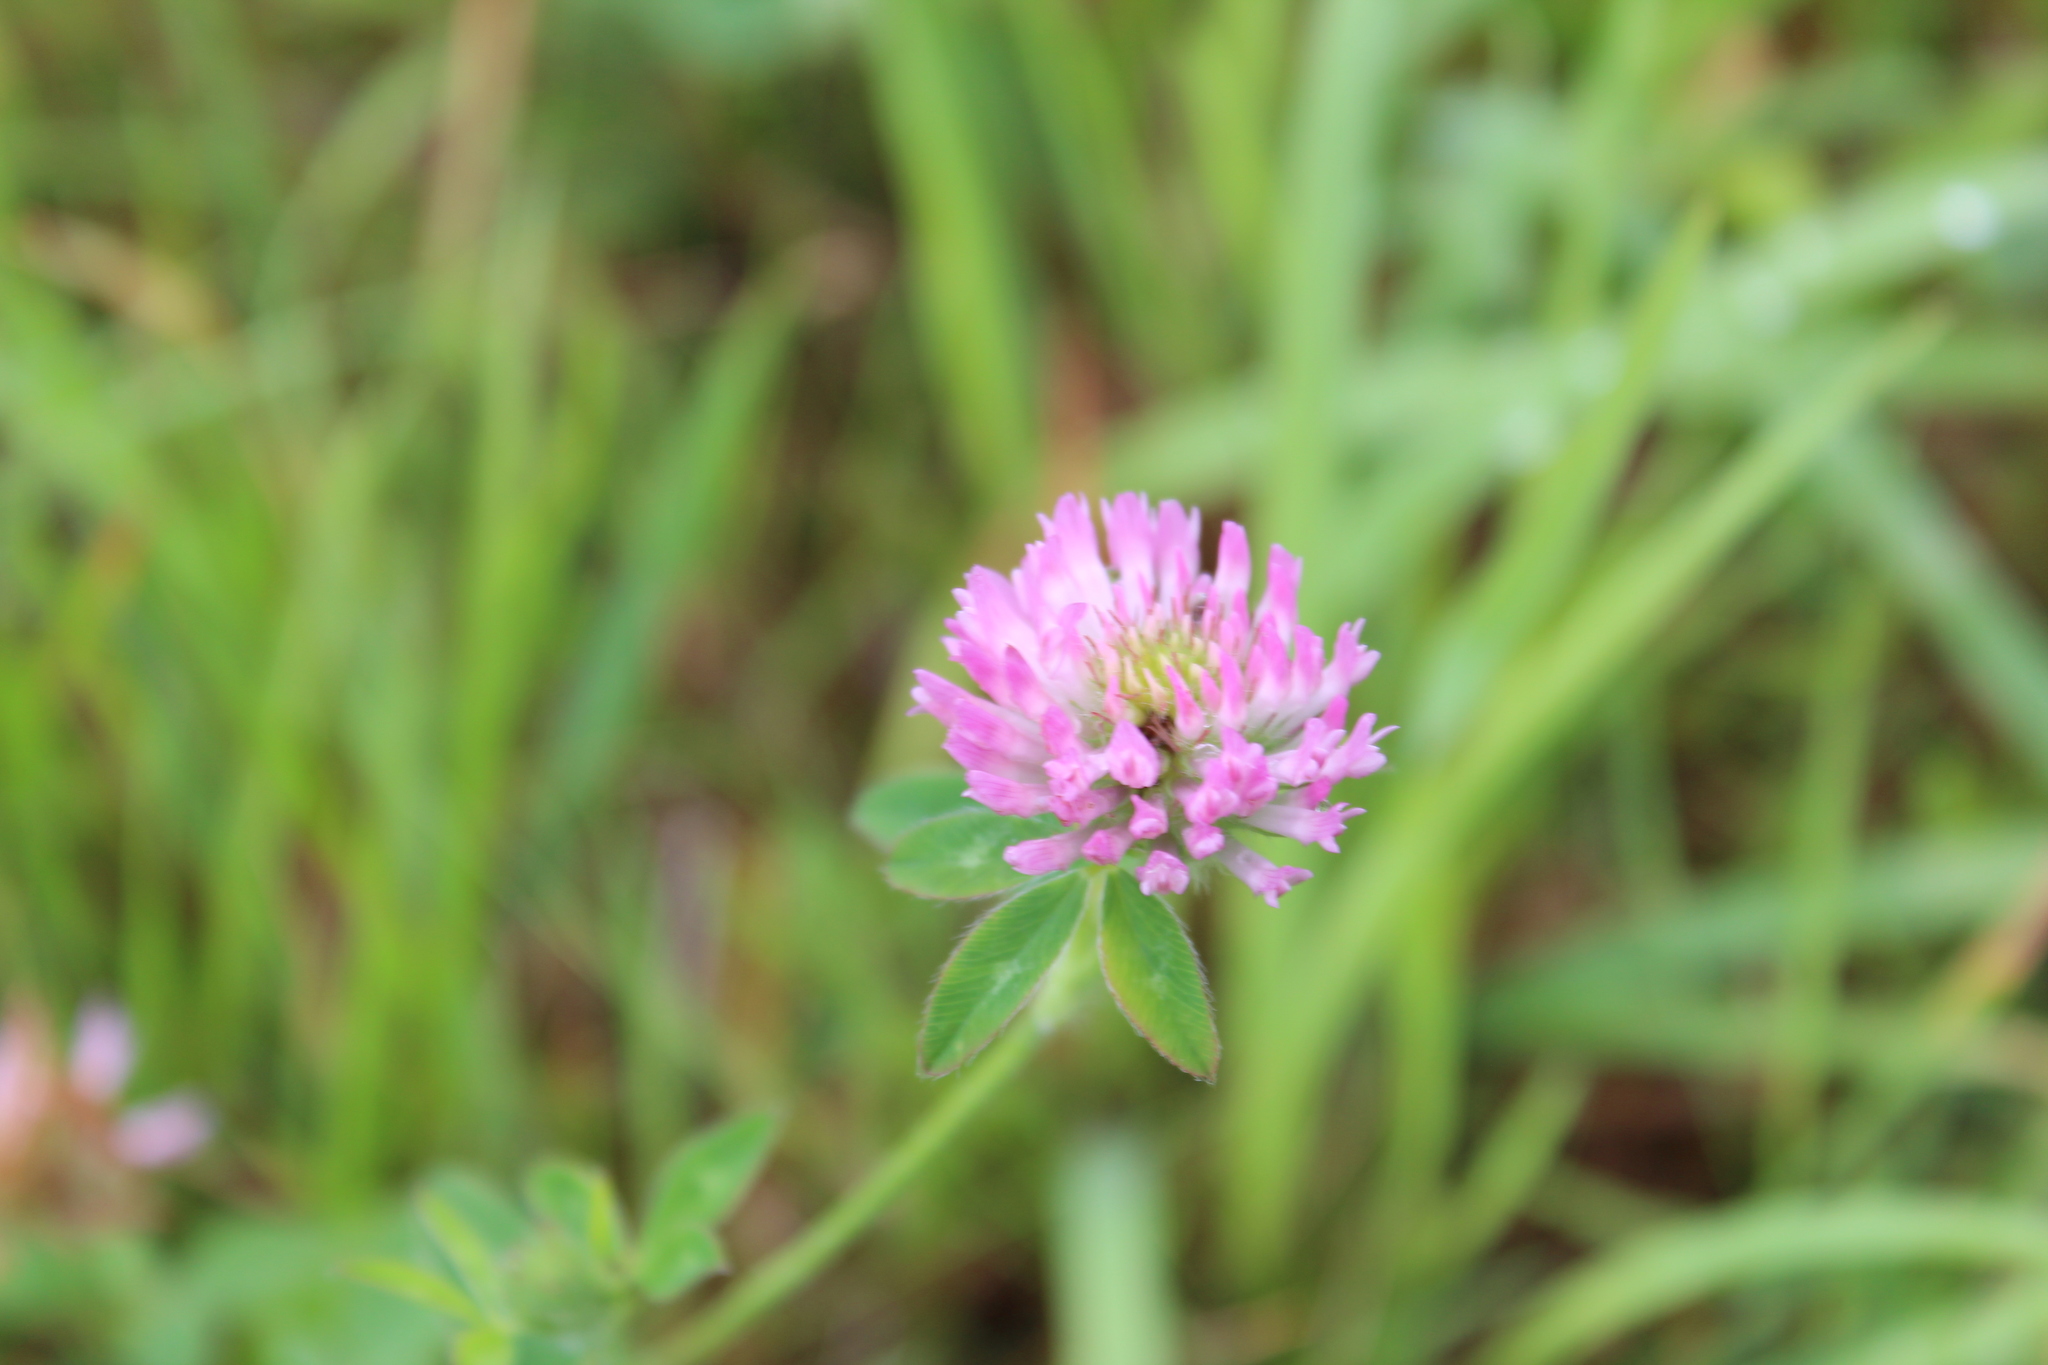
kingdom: Plantae
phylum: Tracheophyta
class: Magnoliopsida
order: Fabales
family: Fabaceae
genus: Trifolium
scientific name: Trifolium pratense
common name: Red clover
